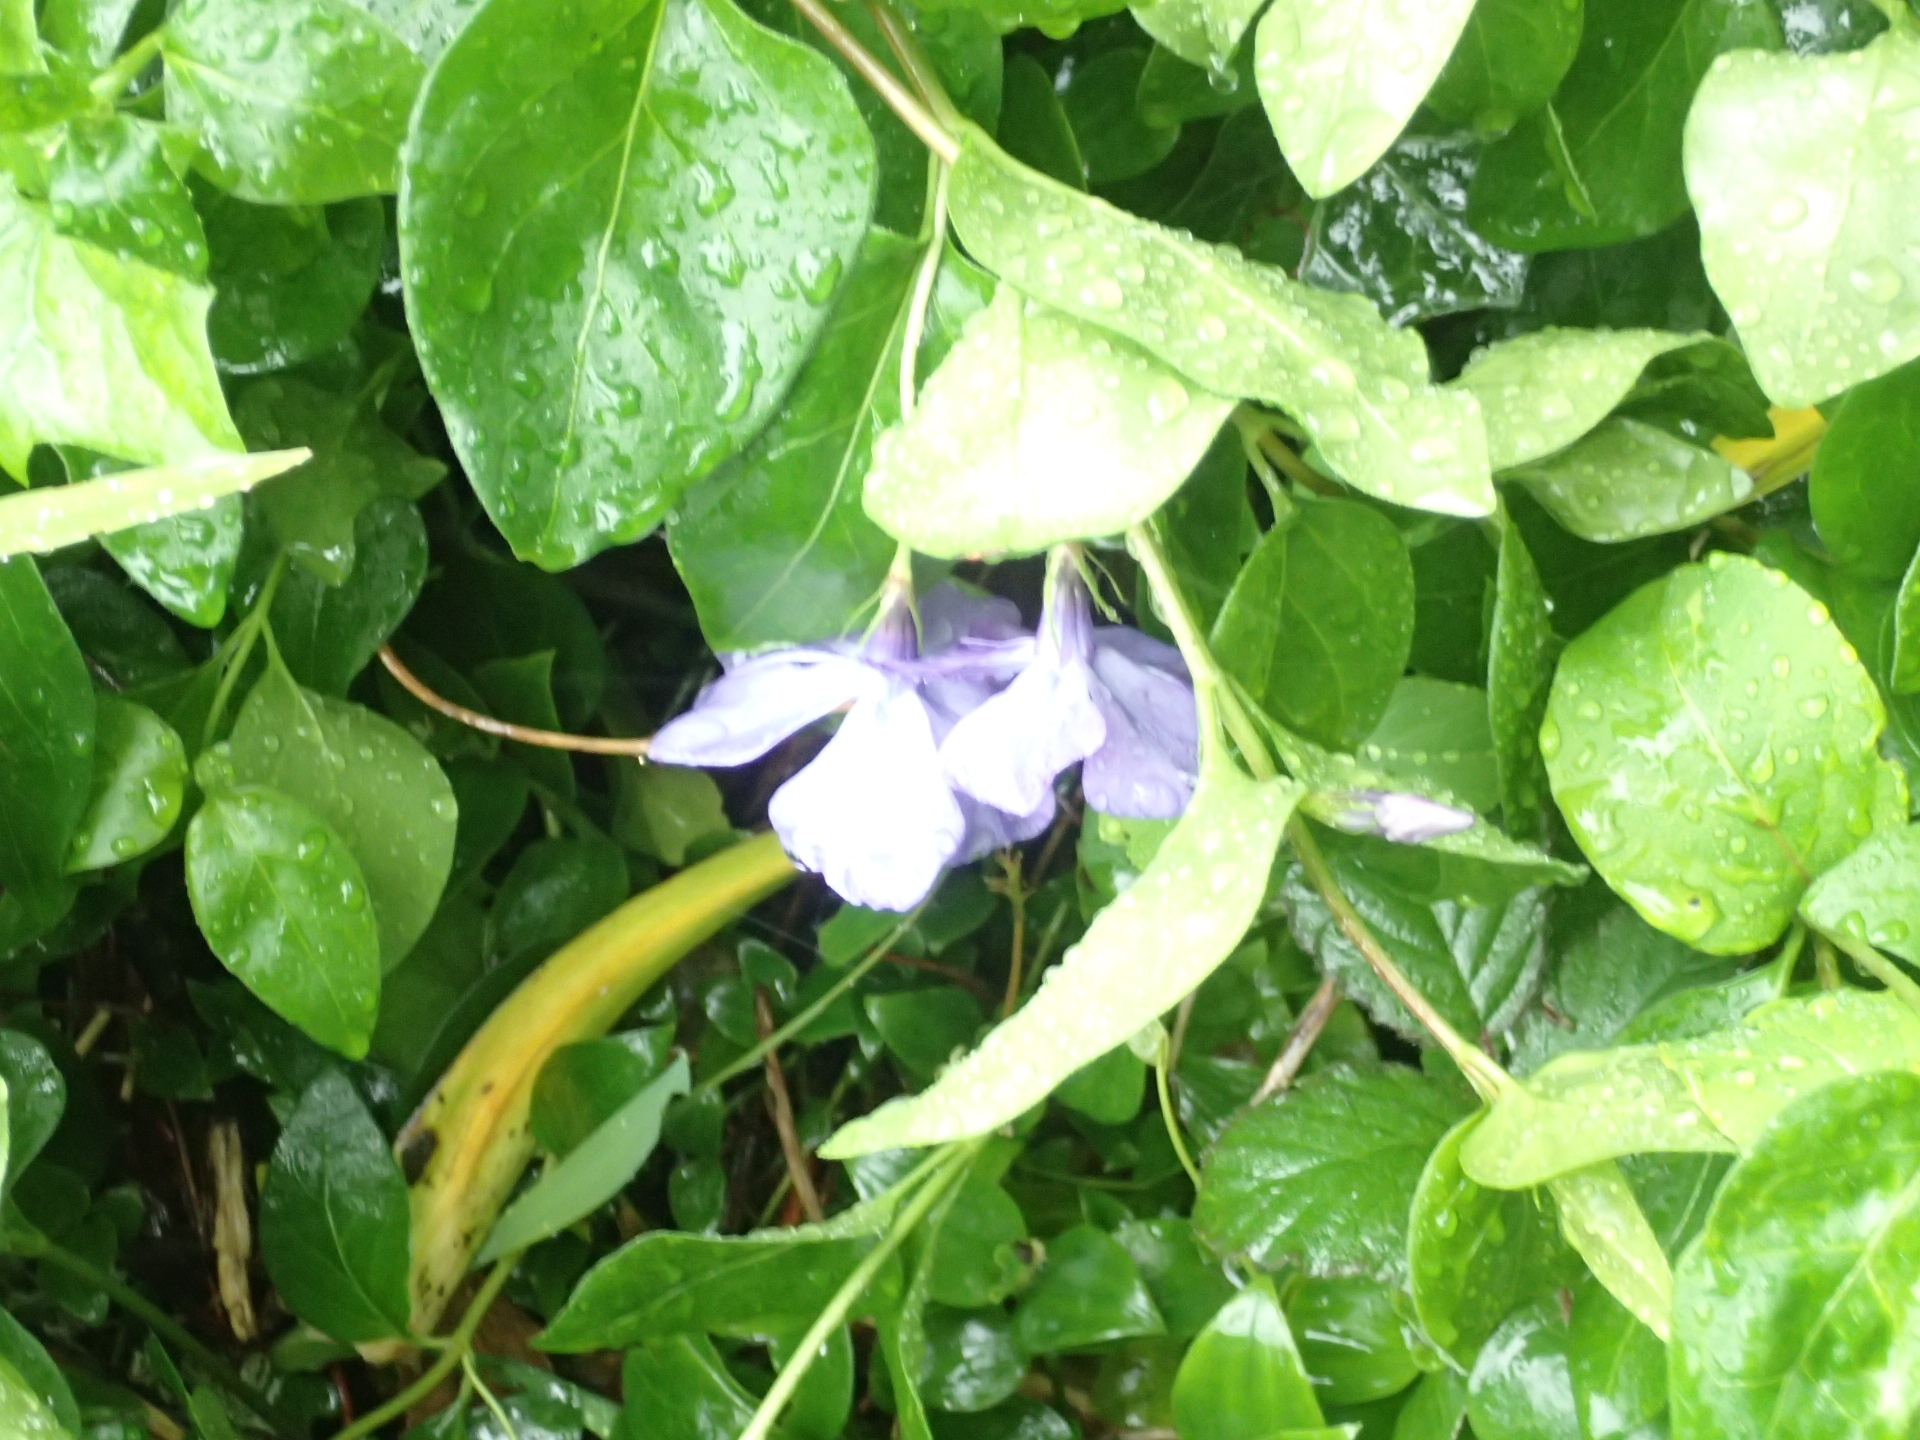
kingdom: Plantae
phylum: Tracheophyta
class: Magnoliopsida
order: Gentianales
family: Apocynaceae
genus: Vinca
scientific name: Vinca major
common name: Greater periwinkle
